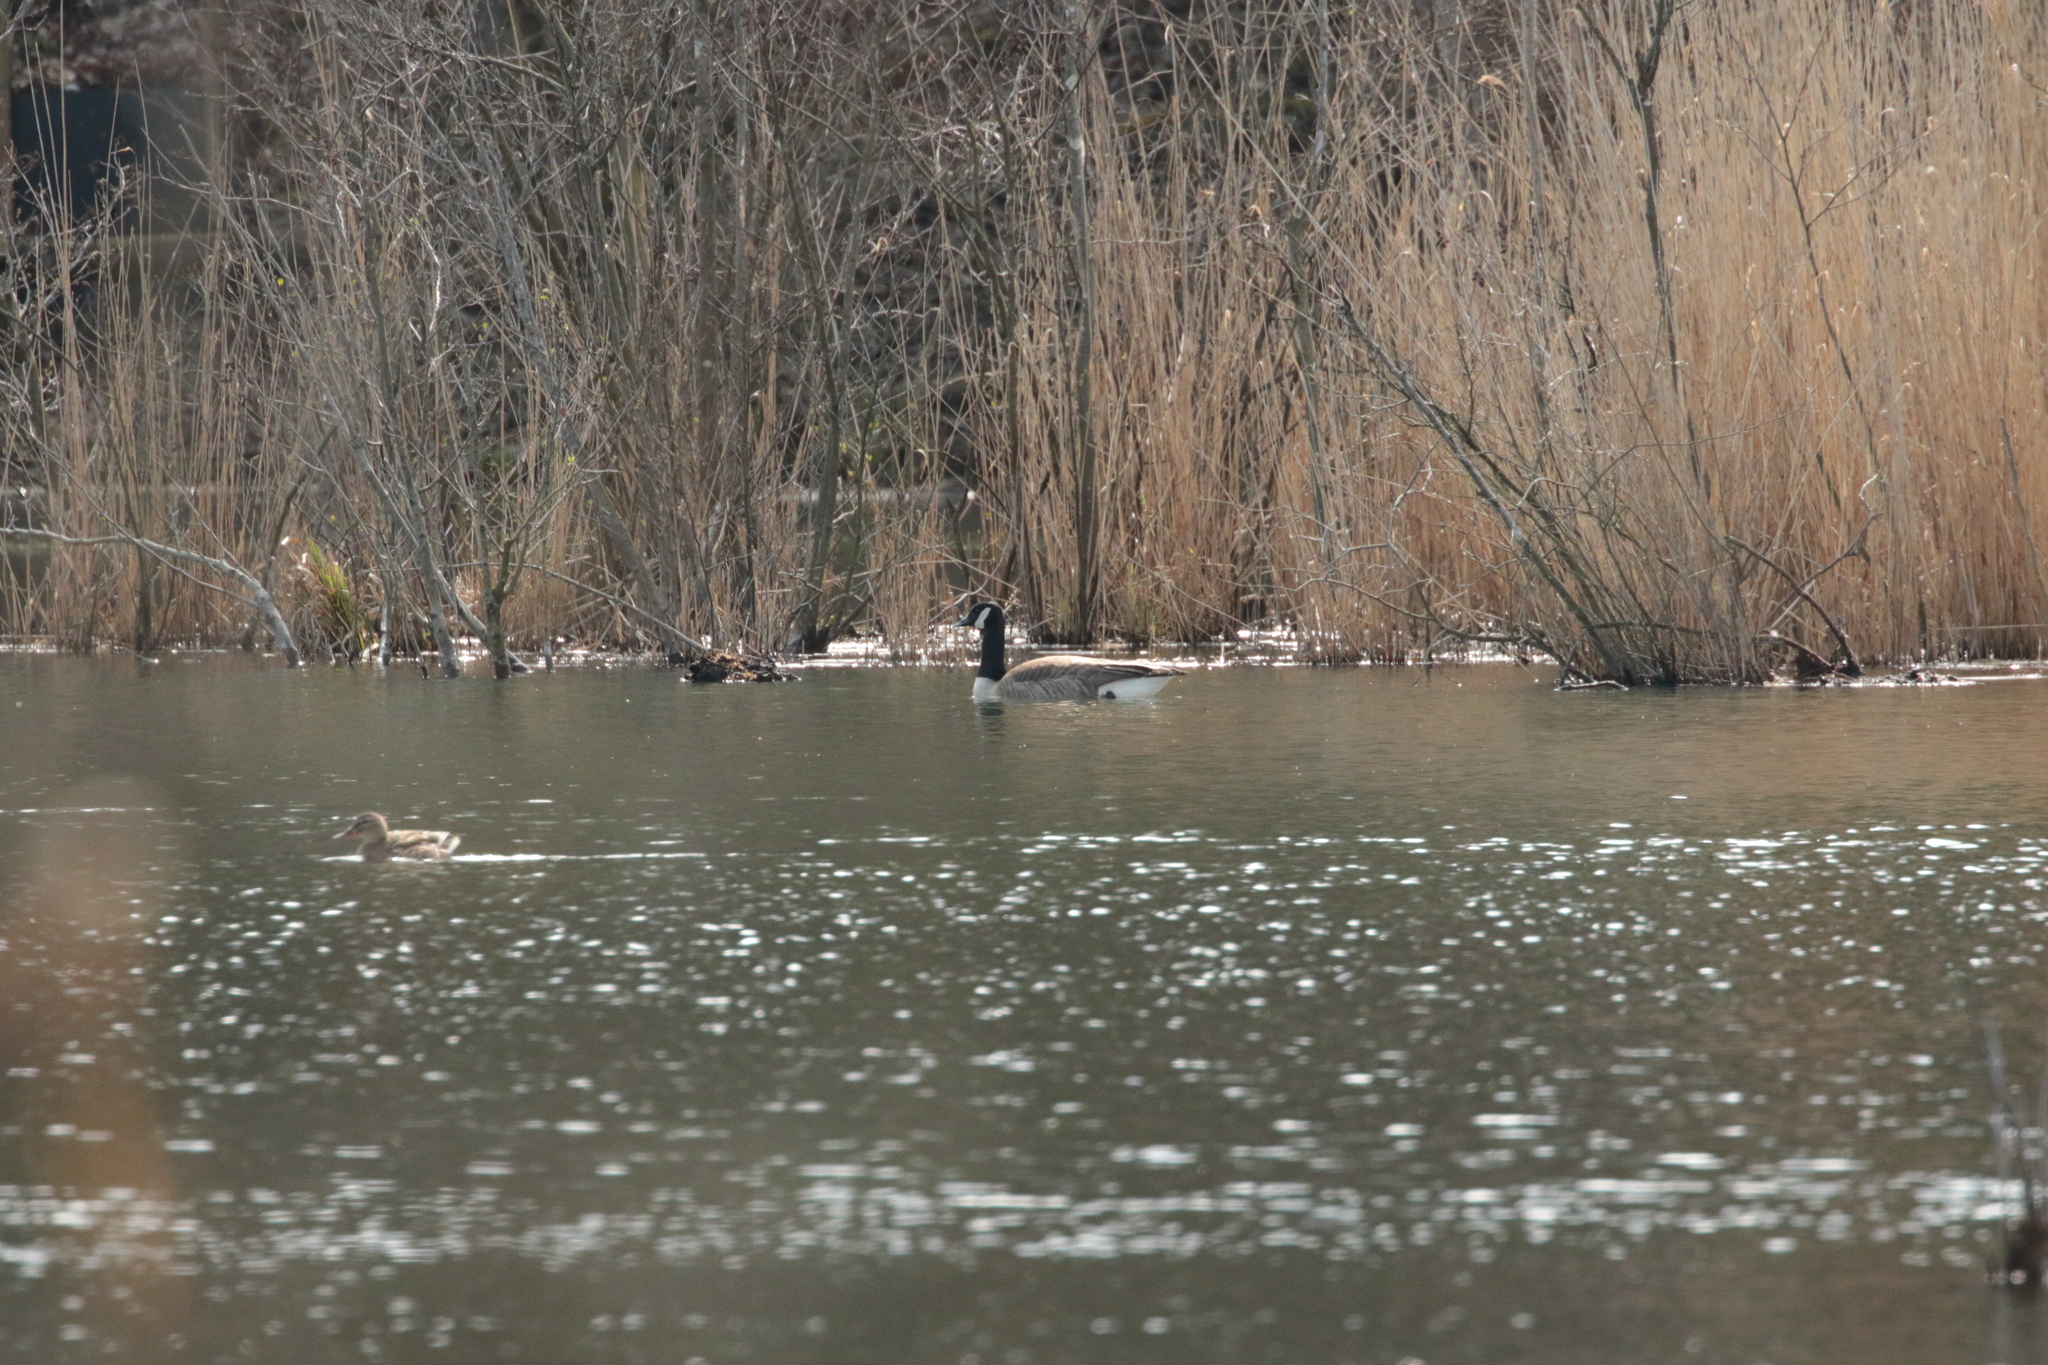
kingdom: Animalia
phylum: Chordata
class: Aves
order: Anseriformes
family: Anatidae
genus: Branta
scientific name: Branta canadensis
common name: Canada goose
